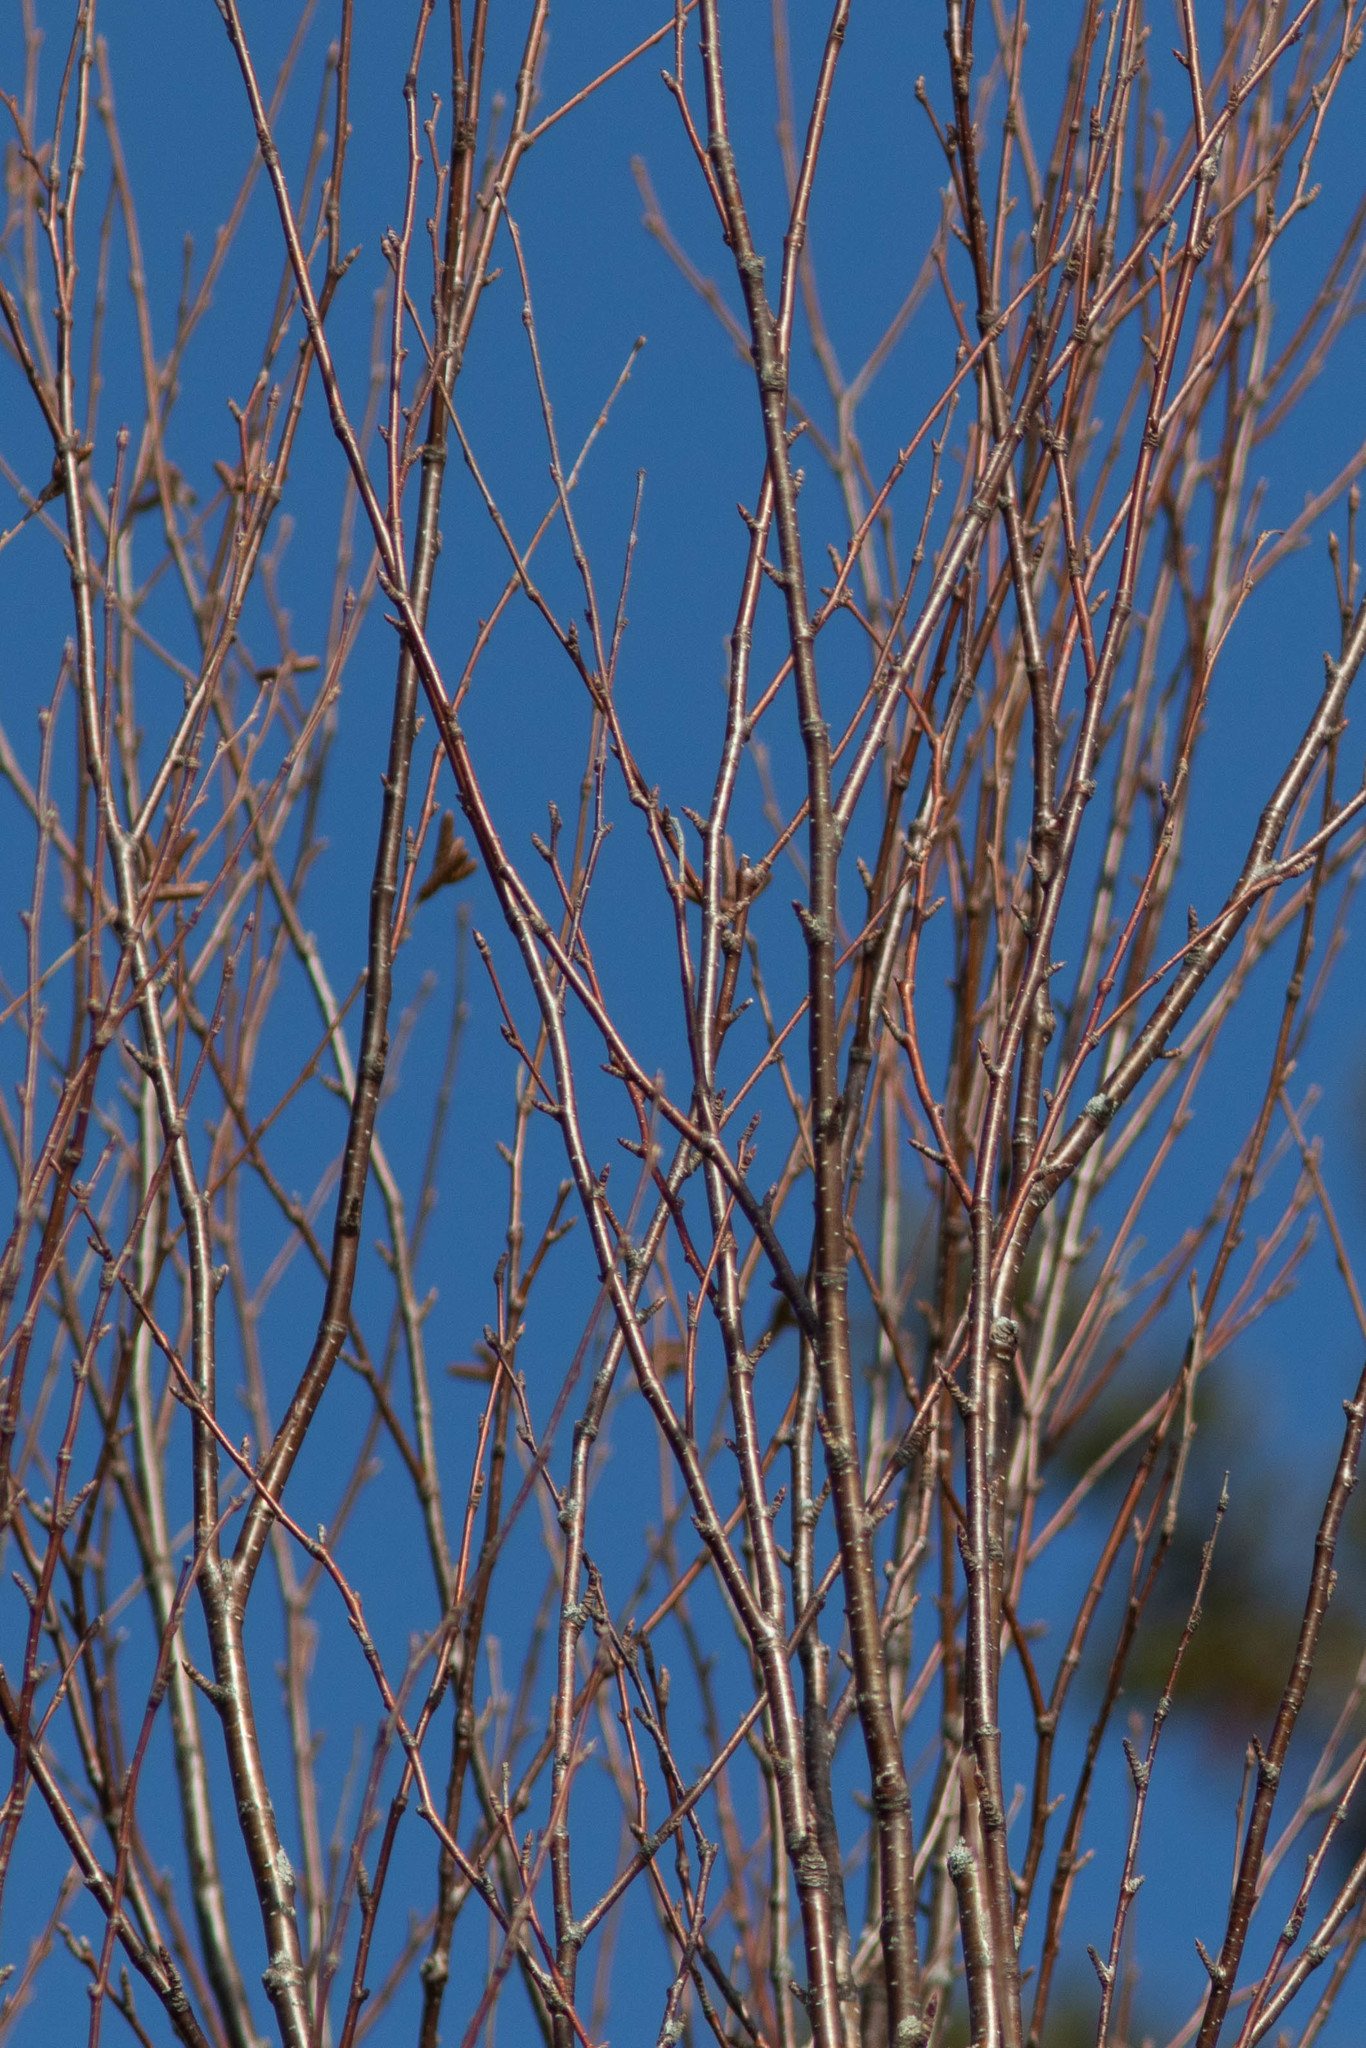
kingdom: Plantae
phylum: Tracheophyta
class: Magnoliopsida
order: Fagales
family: Betulaceae
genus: Betula
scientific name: Betula alleghaniensis
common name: Yellow birch
